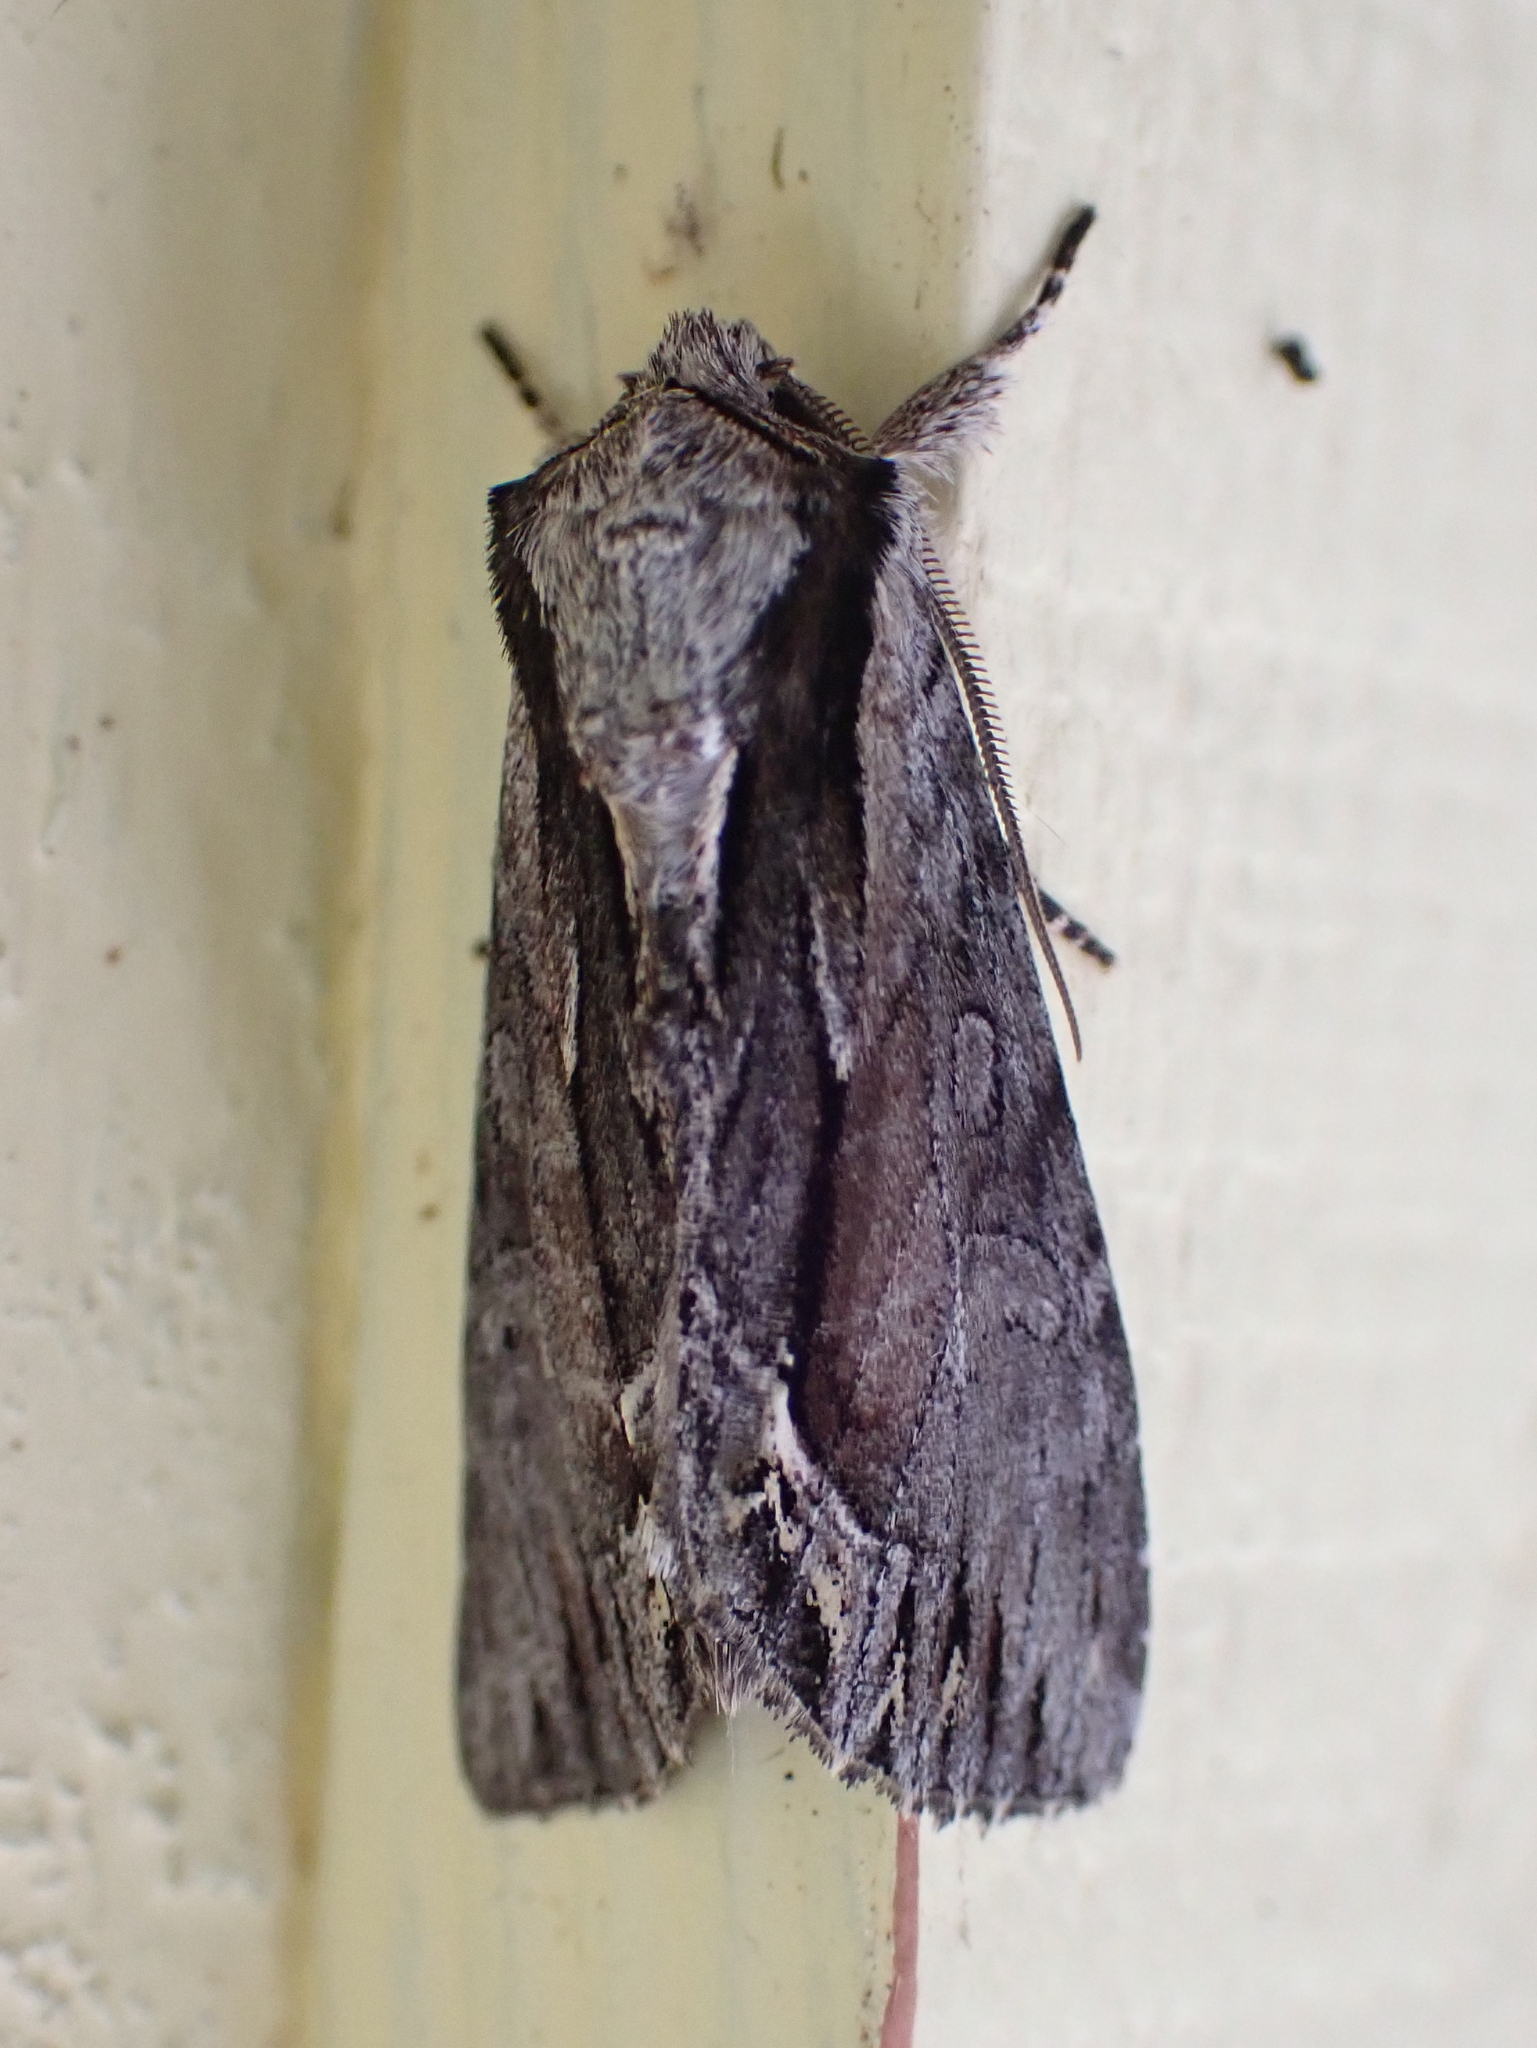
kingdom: Animalia
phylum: Arthropoda
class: Insecta
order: Lepidoptera
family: Noctuidae
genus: Hyppa
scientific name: Hyppa xylinoides
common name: Common hyppa moth
